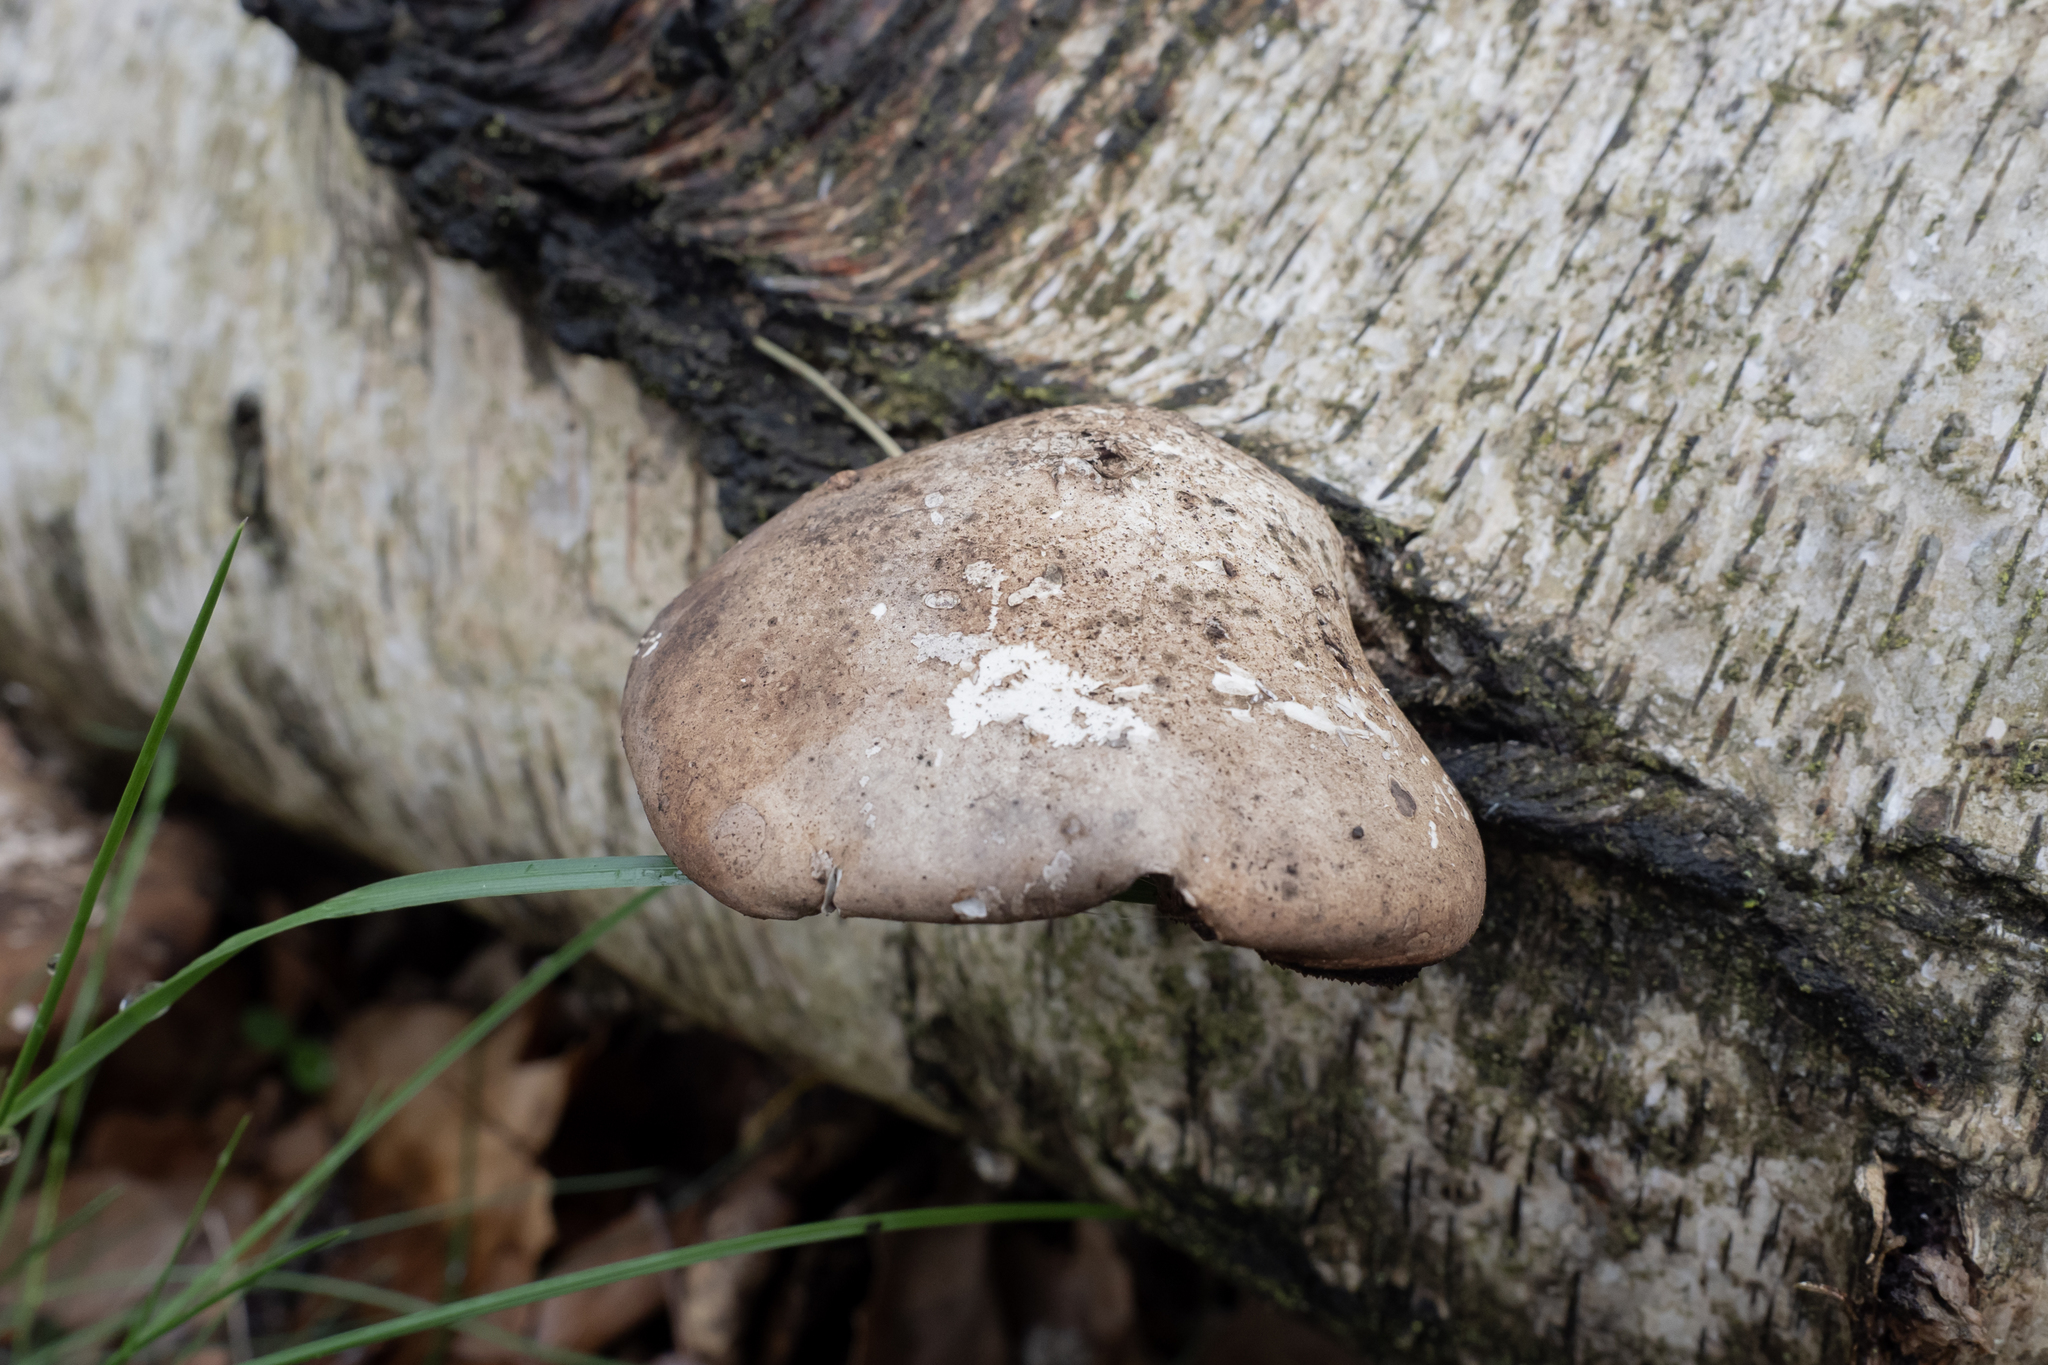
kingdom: Fungi
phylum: Basidiomycota
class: Agaricomycetes
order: Polyporales
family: Fomitopsidaceae
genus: Fomitopsis
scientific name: Fomitopsis betulina
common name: Birch polypore
